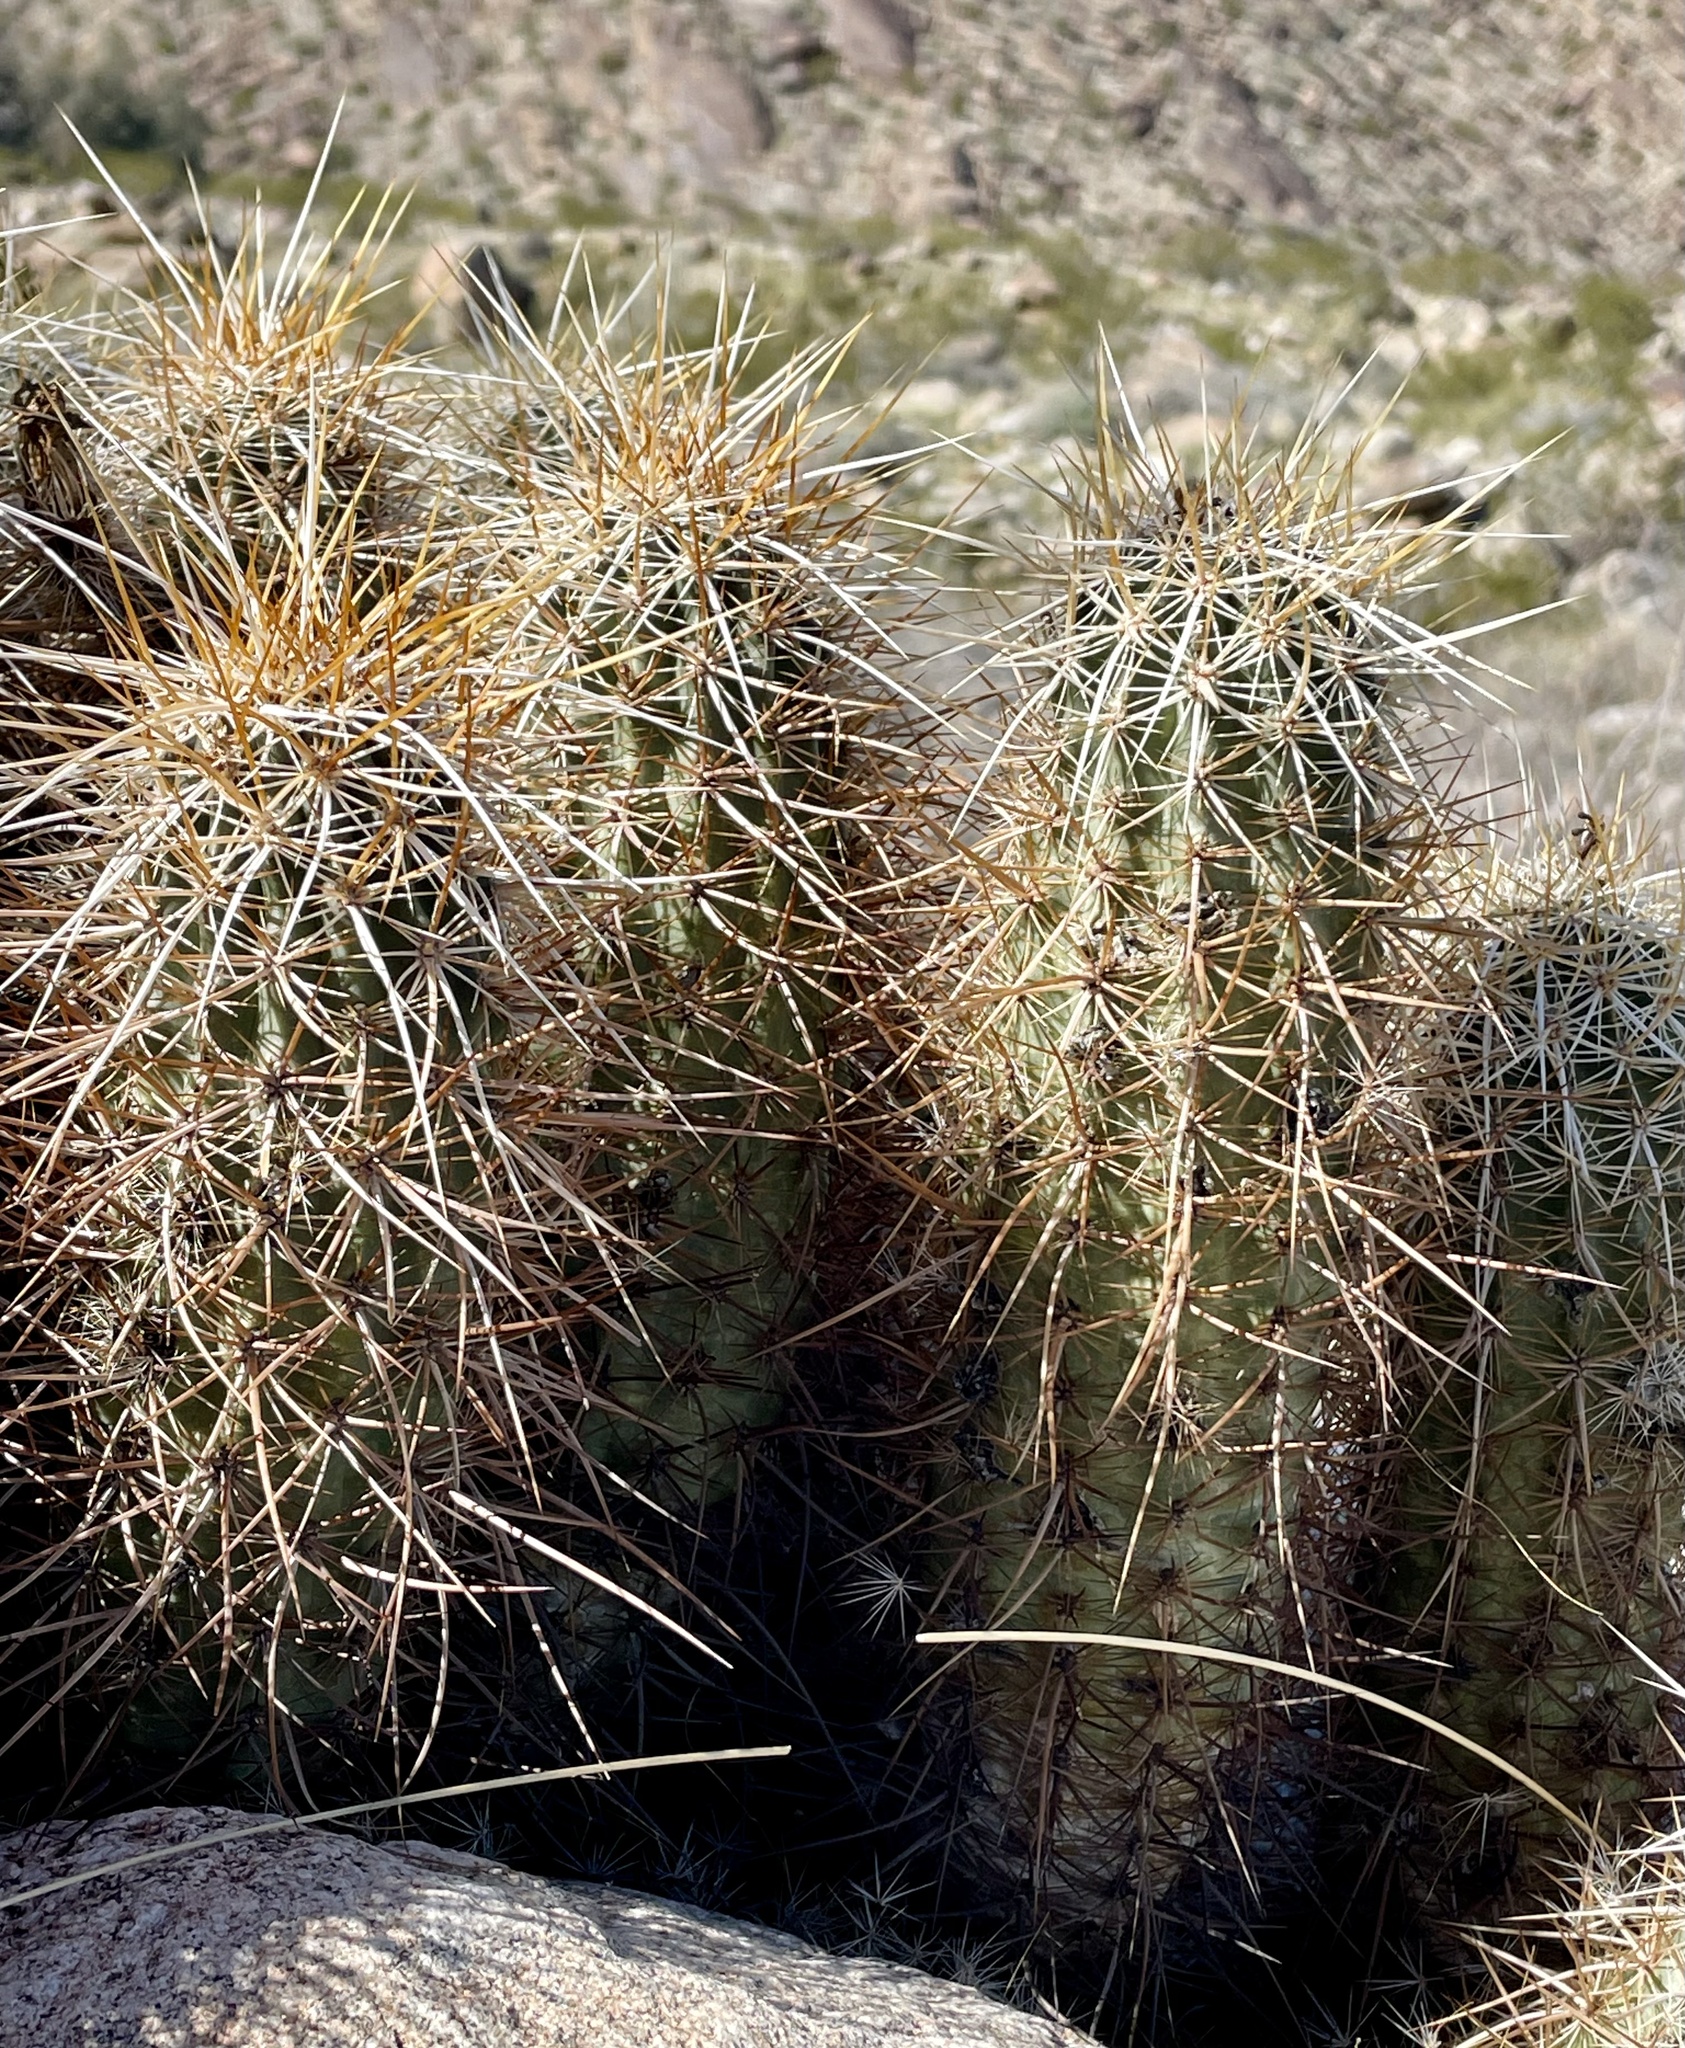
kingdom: Plantae
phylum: Tracheophyta
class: Magnoliopsida
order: Caryophyllales
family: Cactaceae
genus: Echinocereus
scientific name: Echinocereus engelmannii
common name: Engelmann's hedgehog cactus
